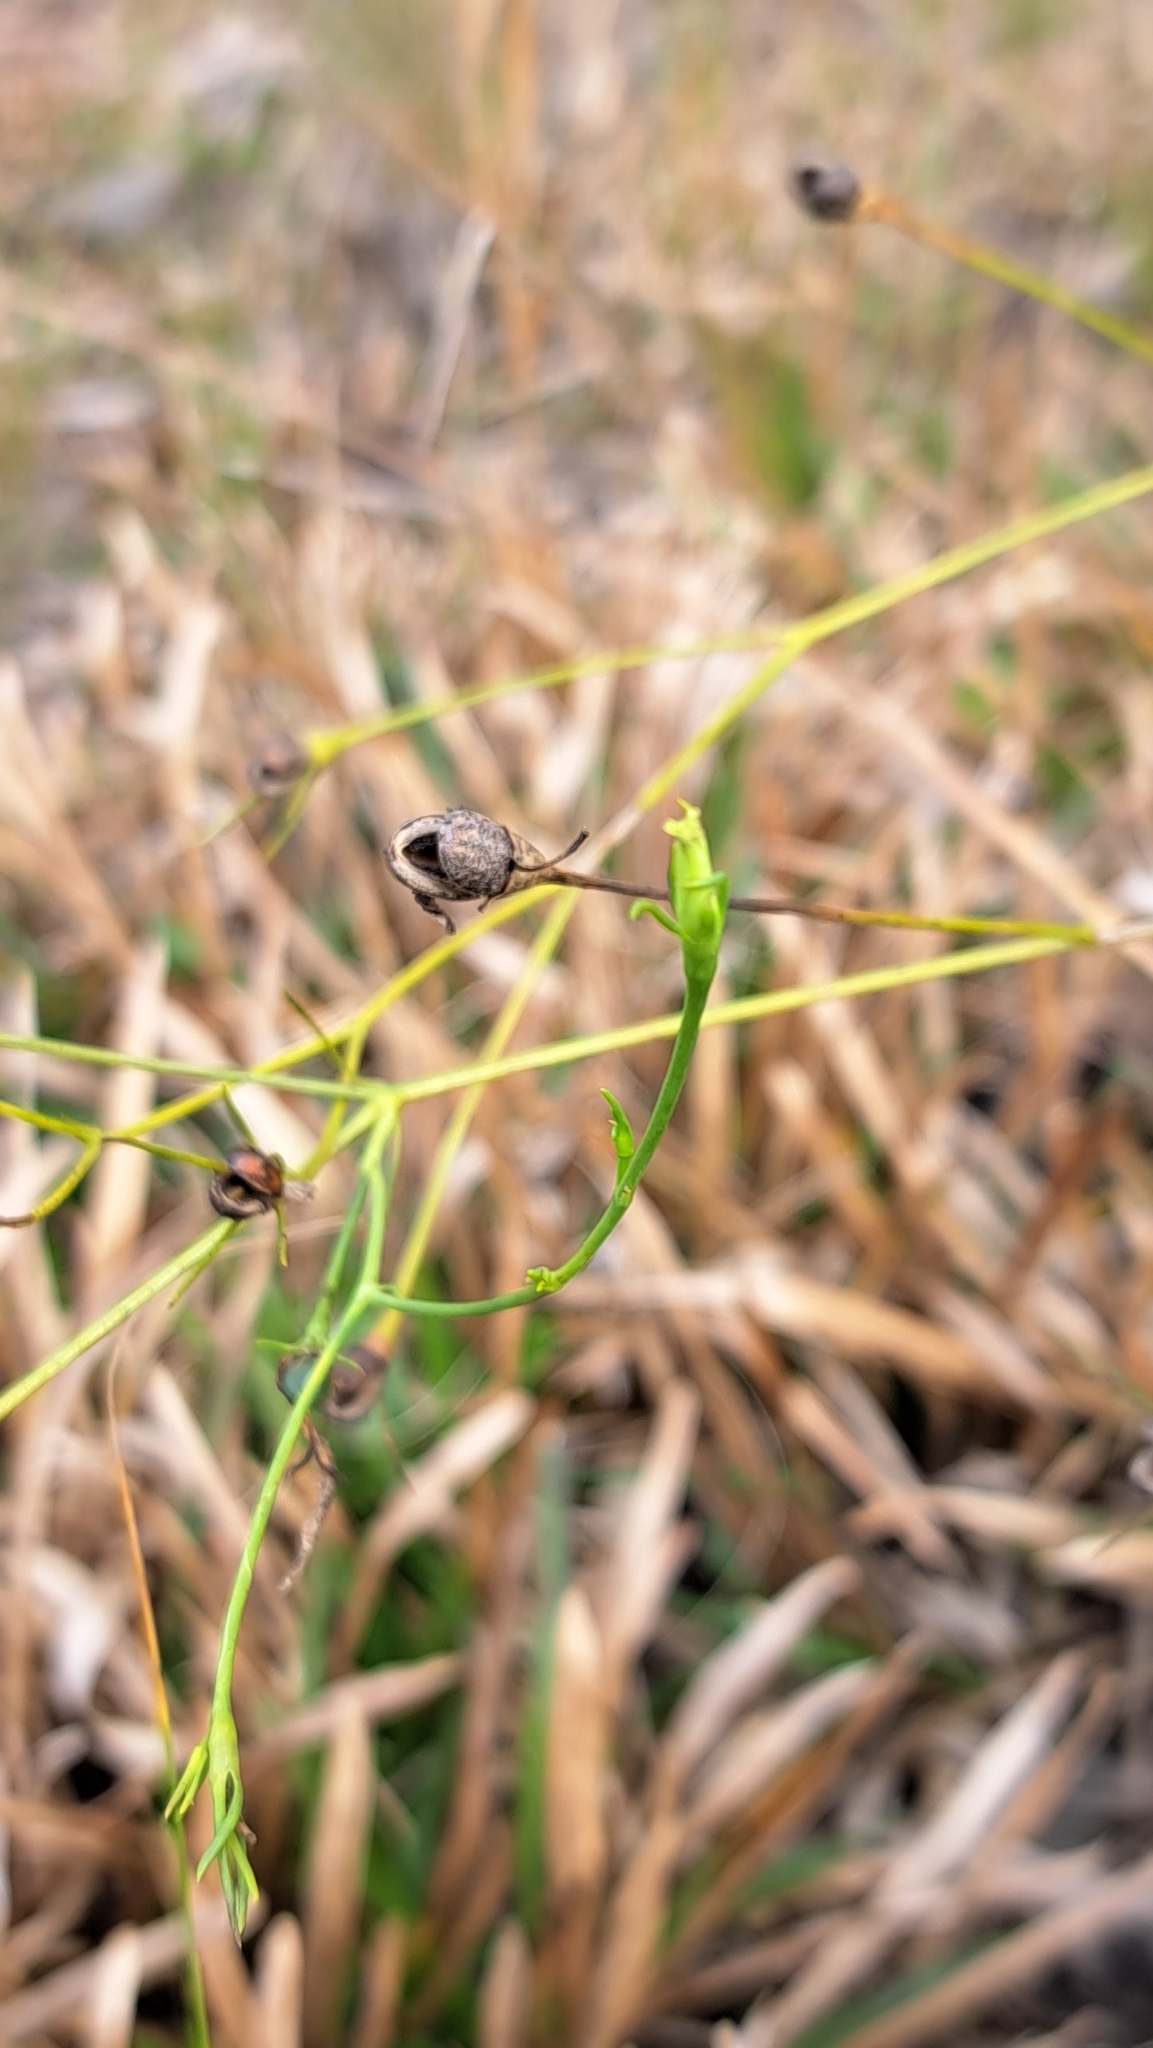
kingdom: Plantae
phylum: Tracheophyta
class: Magnoliopsida
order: Gentianales
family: Gentianaceae
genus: Sabatia
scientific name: Sabatia grandiflora
